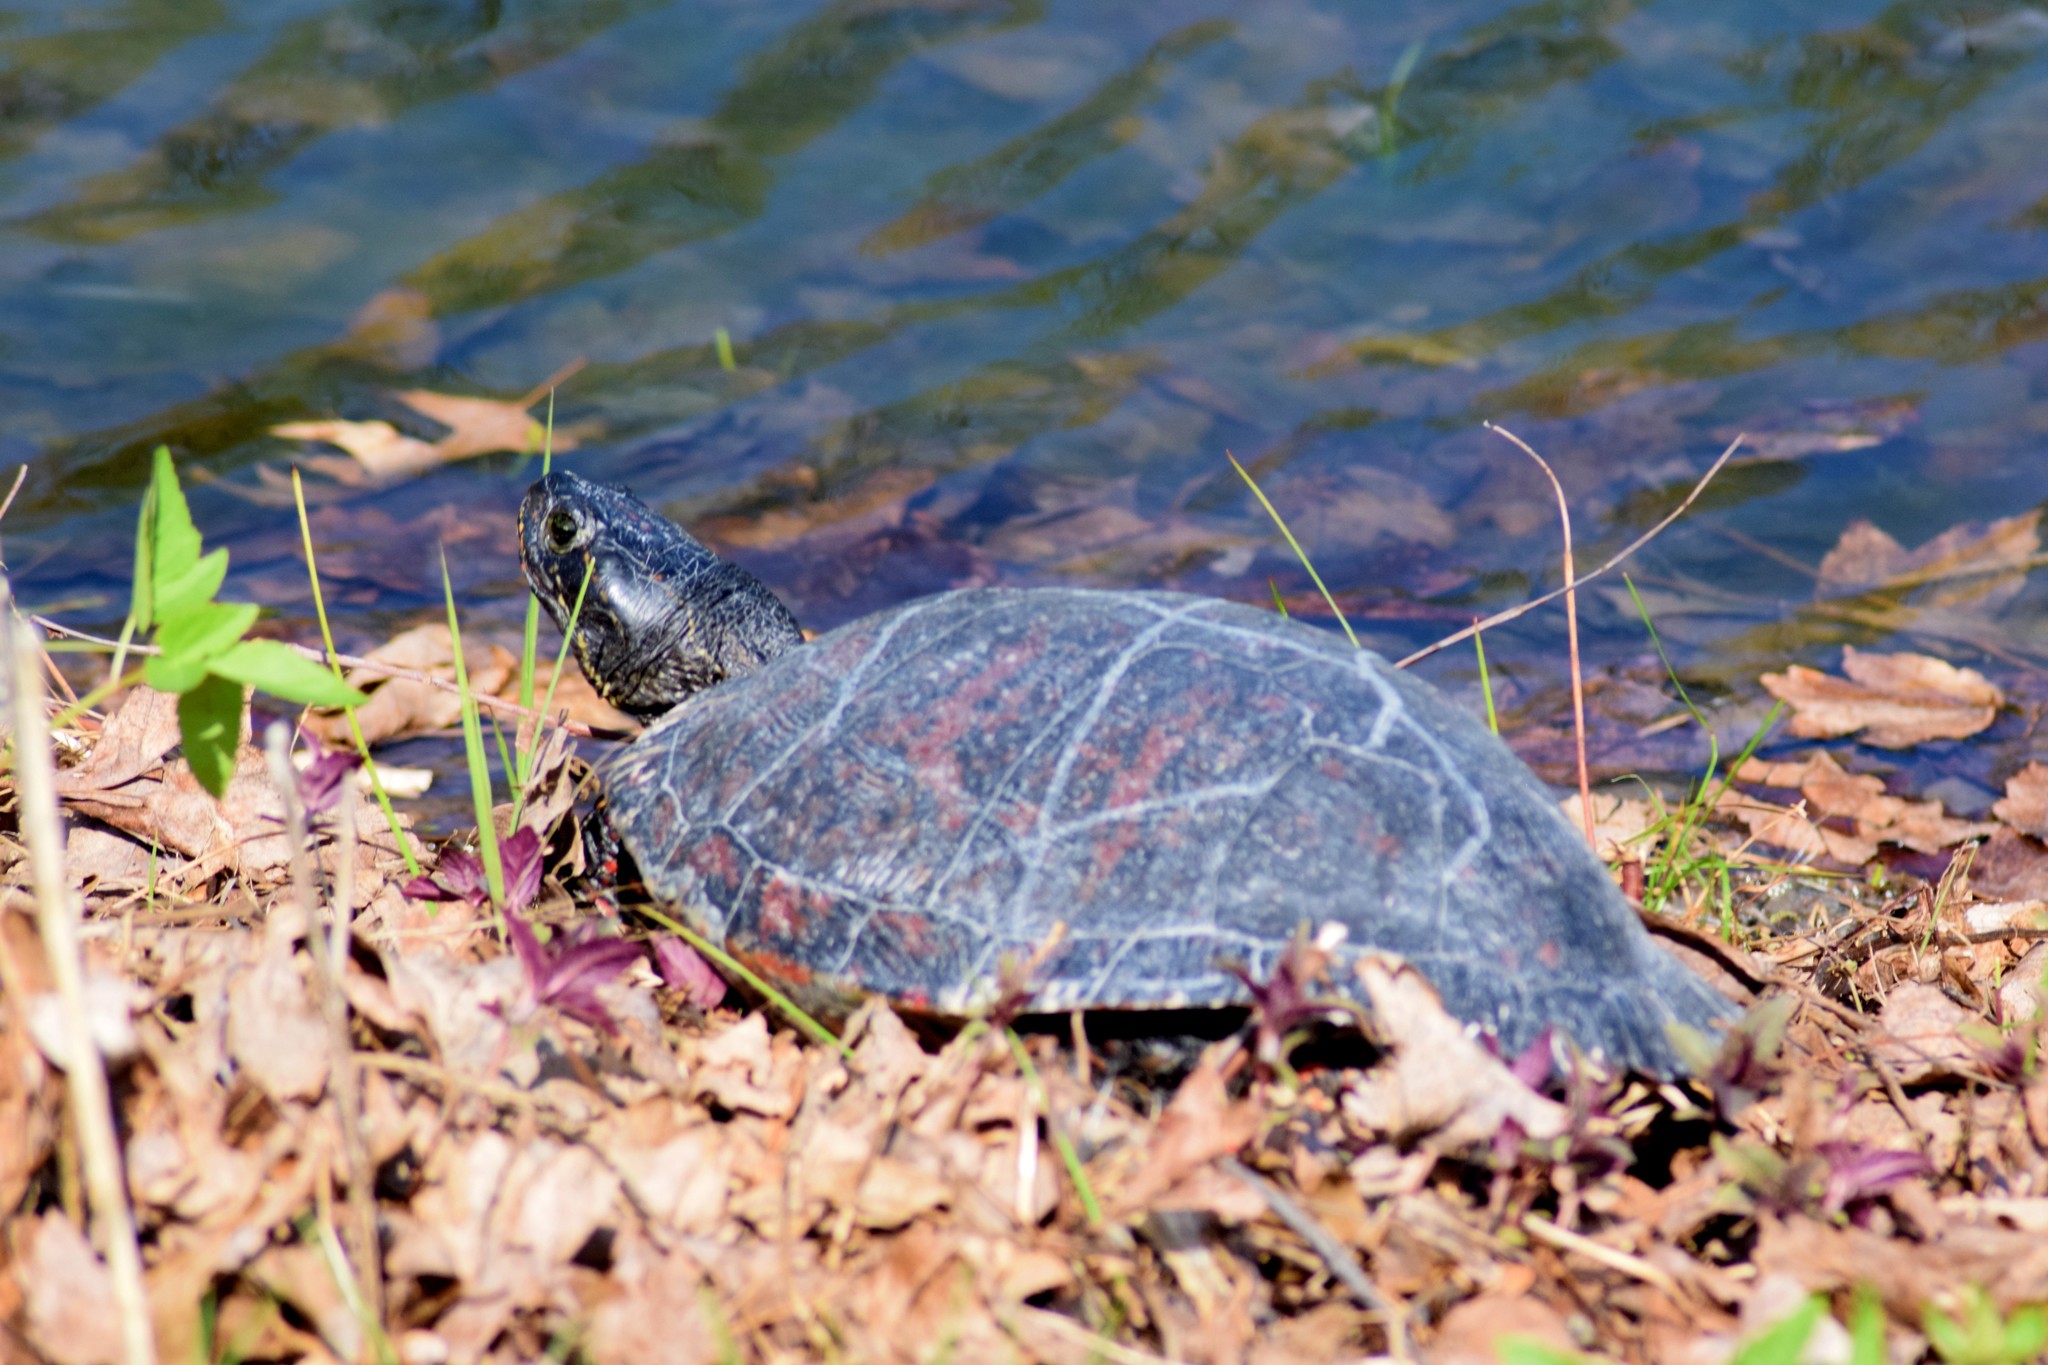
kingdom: Animalia
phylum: Chordata
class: Testudines
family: Emydidae
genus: Pseudemys
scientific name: Pseudemys rubriventris
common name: American red-bellied turtle
